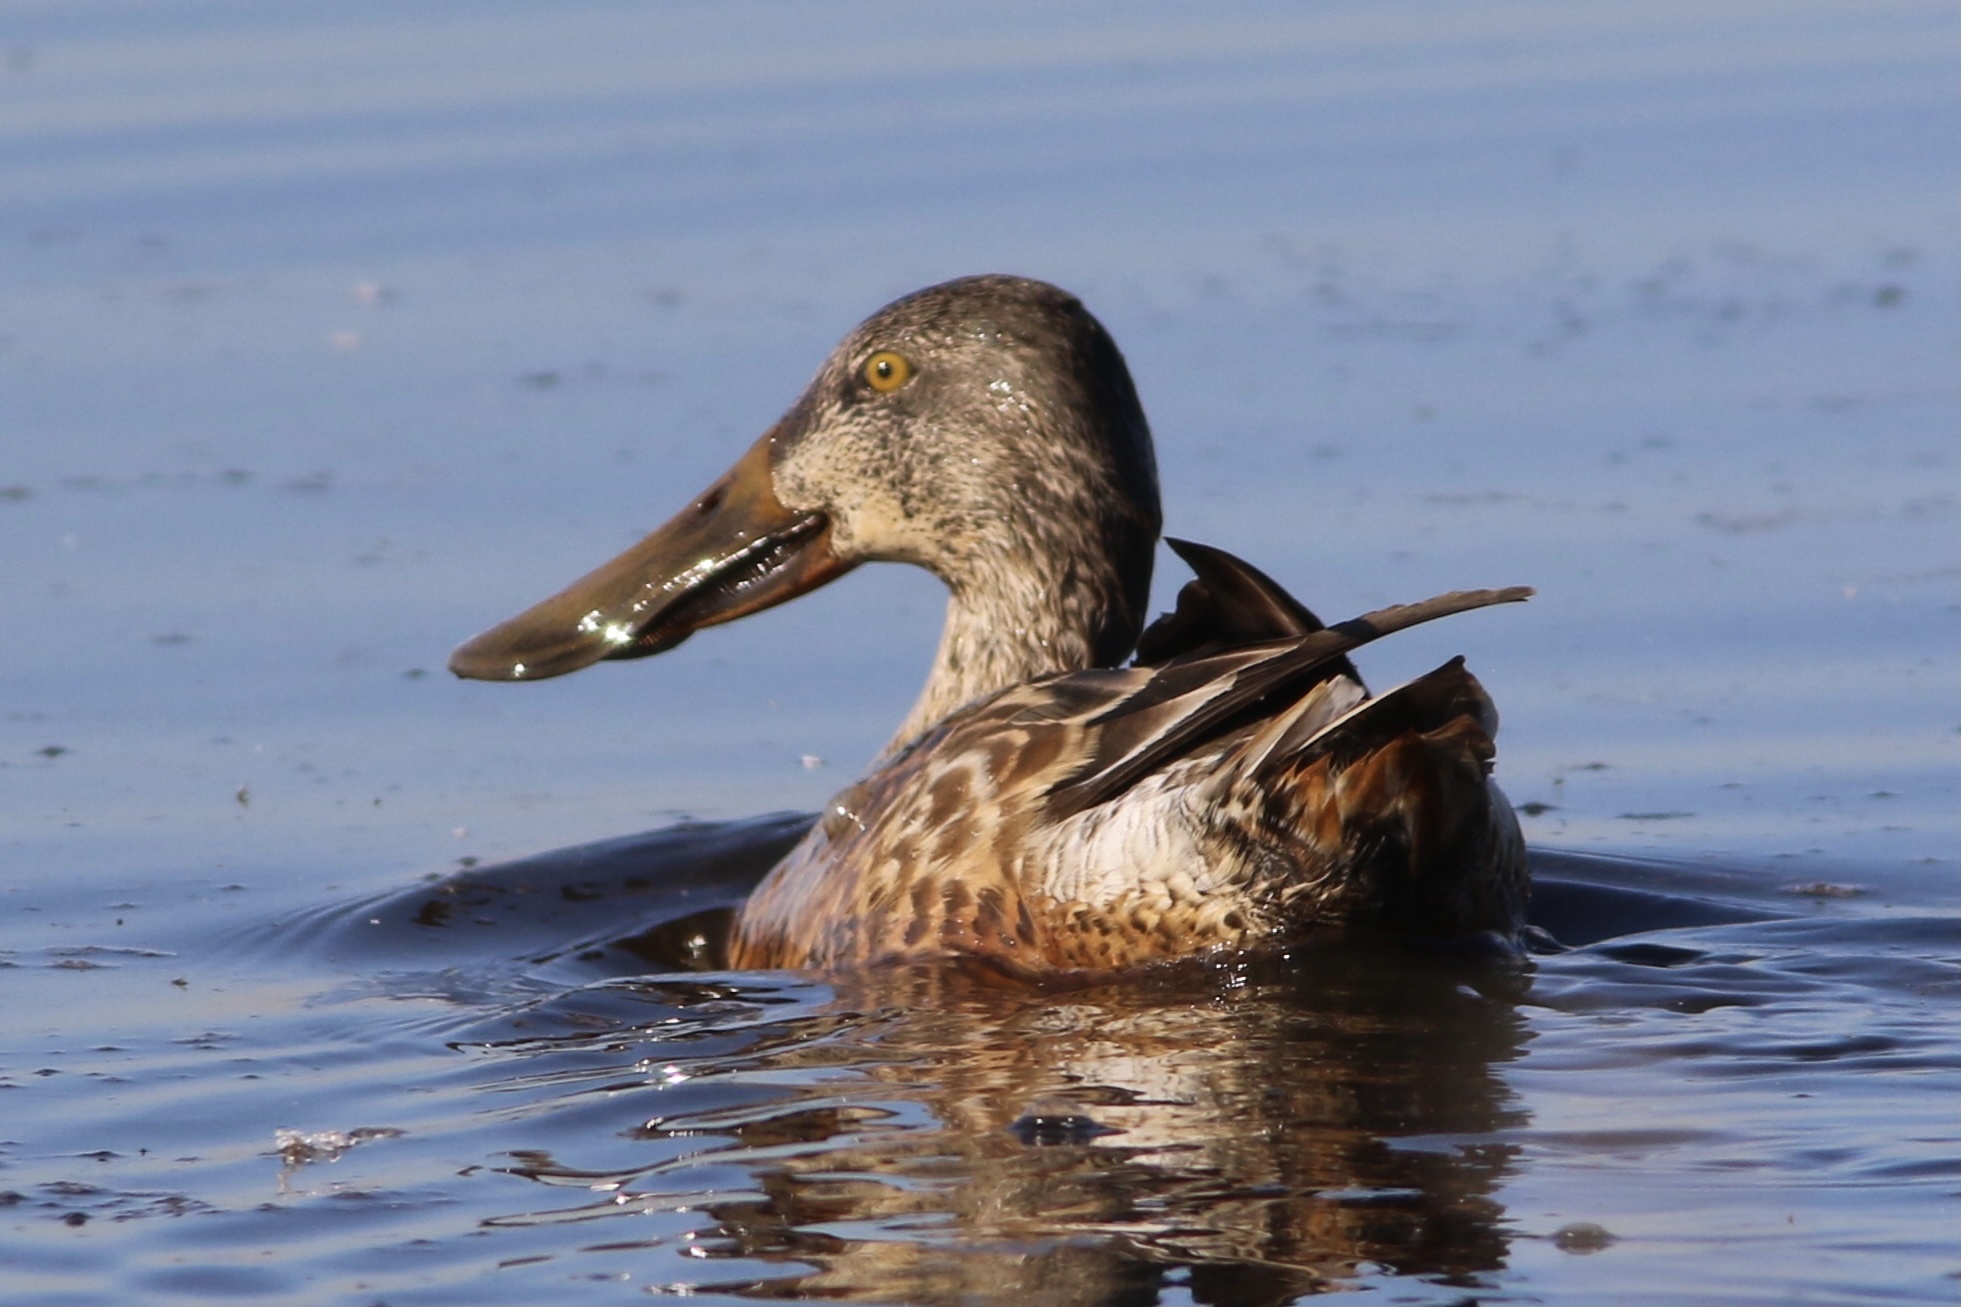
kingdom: Animalia
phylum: Chordata
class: Aves
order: Anseriformes
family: Anatidae
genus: Spatula
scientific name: Spatula clypeata
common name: Northern shoveler
